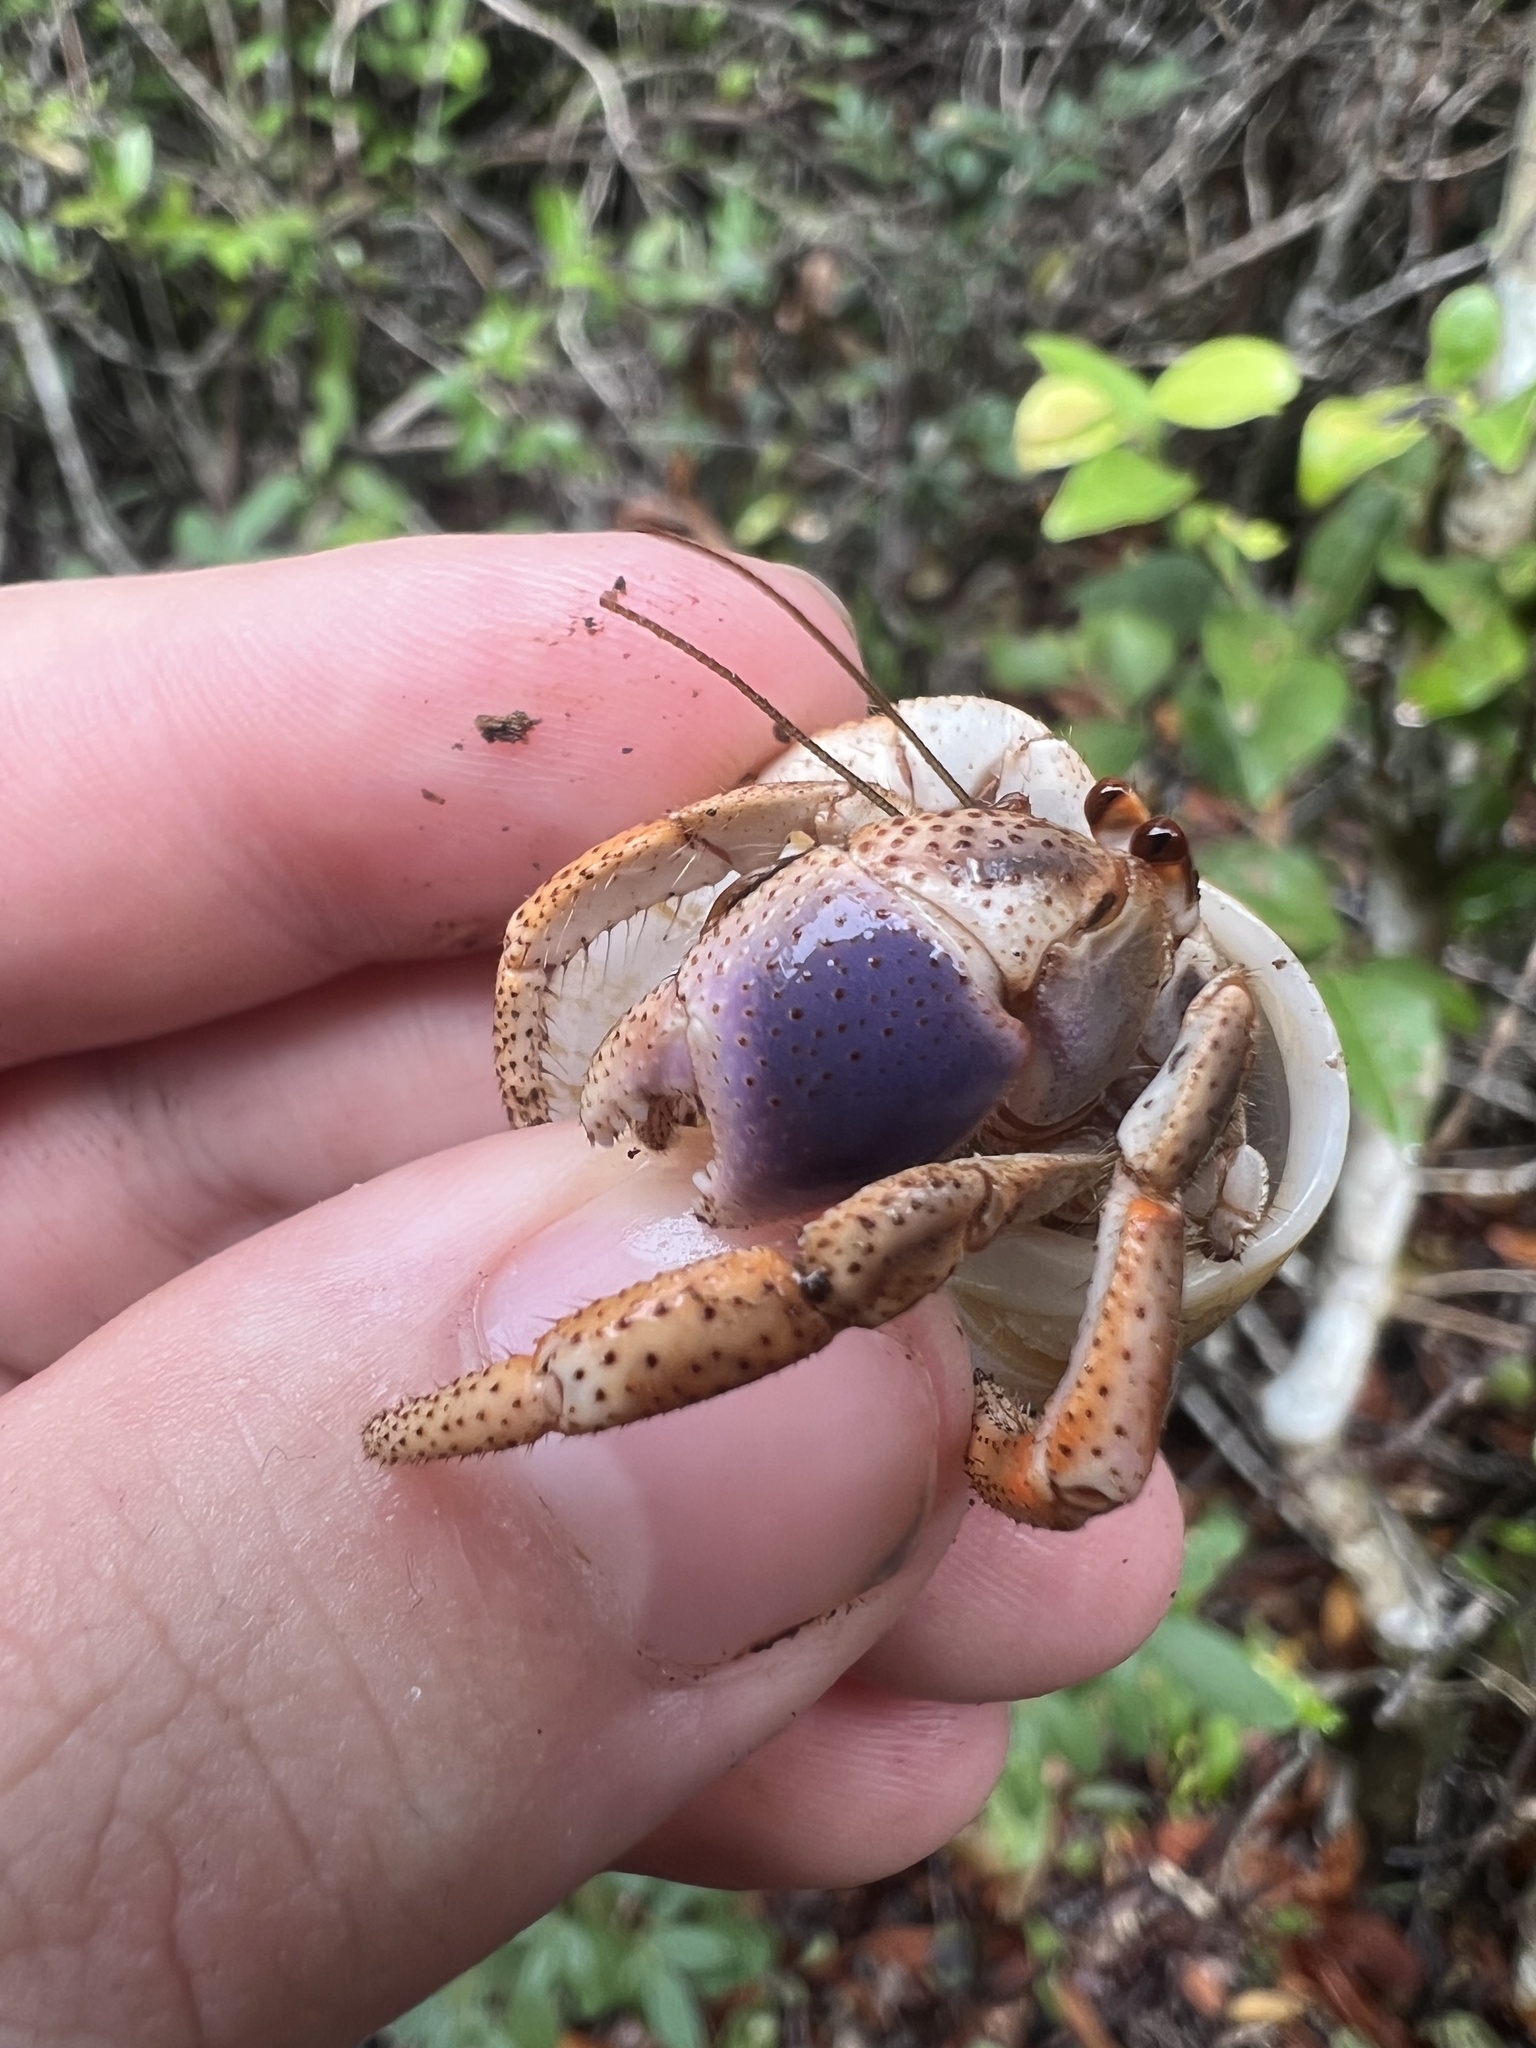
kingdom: Animalia
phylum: Arthropoda
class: Malacostraca
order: Decapoda
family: Coenobitidae
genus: Coenobita
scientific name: Coenobita clypeatus
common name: Caribbean hermit crab
